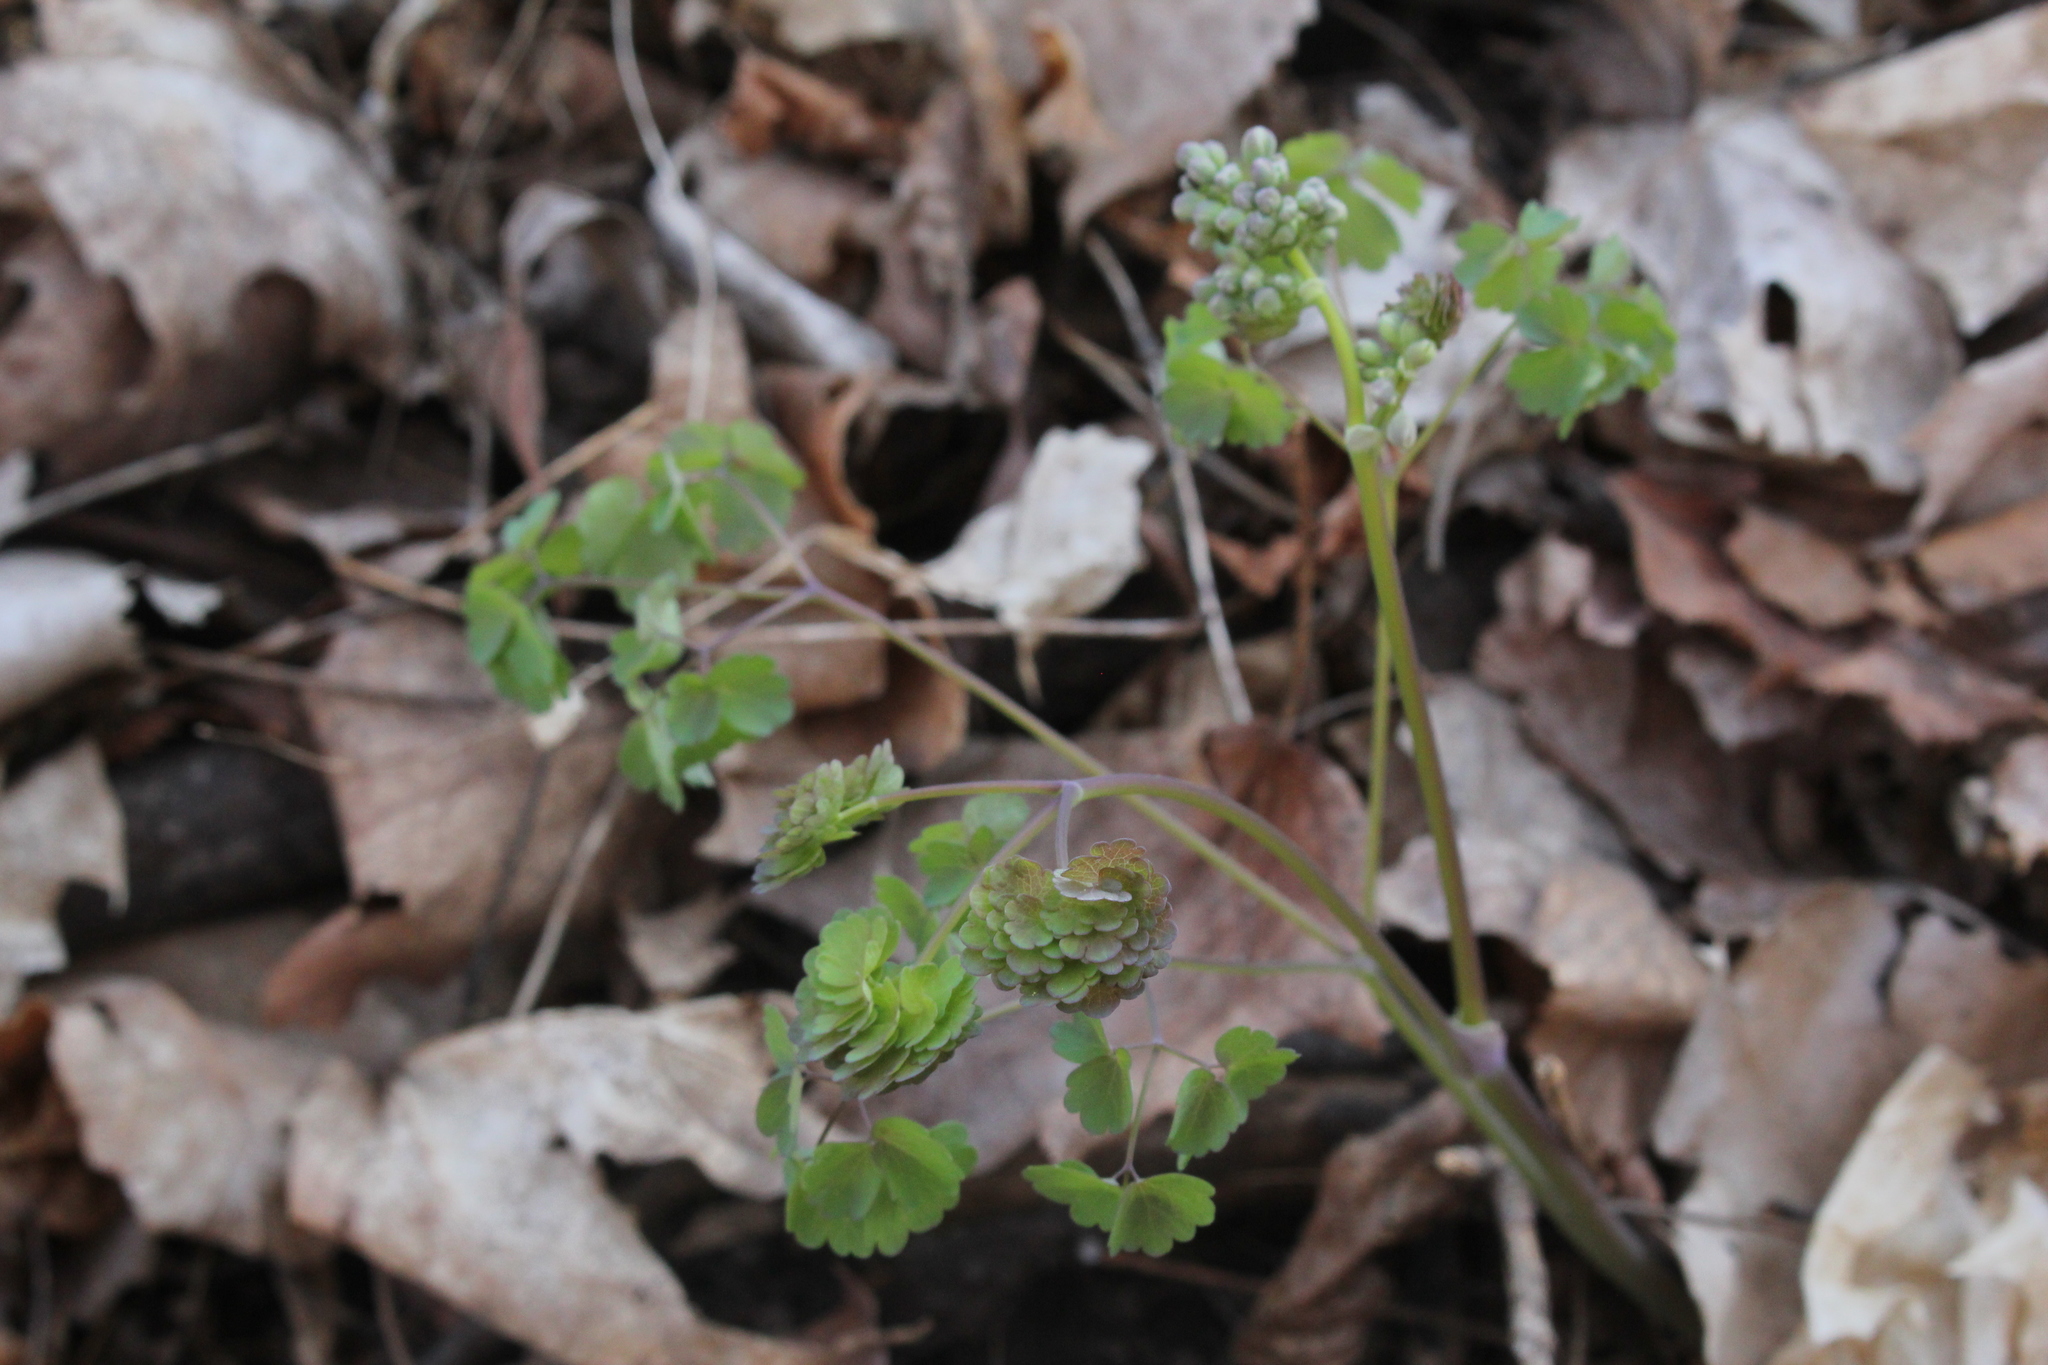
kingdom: Plantae
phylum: Tracheophyta
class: Magnoliopsida
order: Ranunculales
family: Ranunculaceae
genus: Thalictrum
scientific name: Thalictrum dioicum
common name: Early meadow-rue
